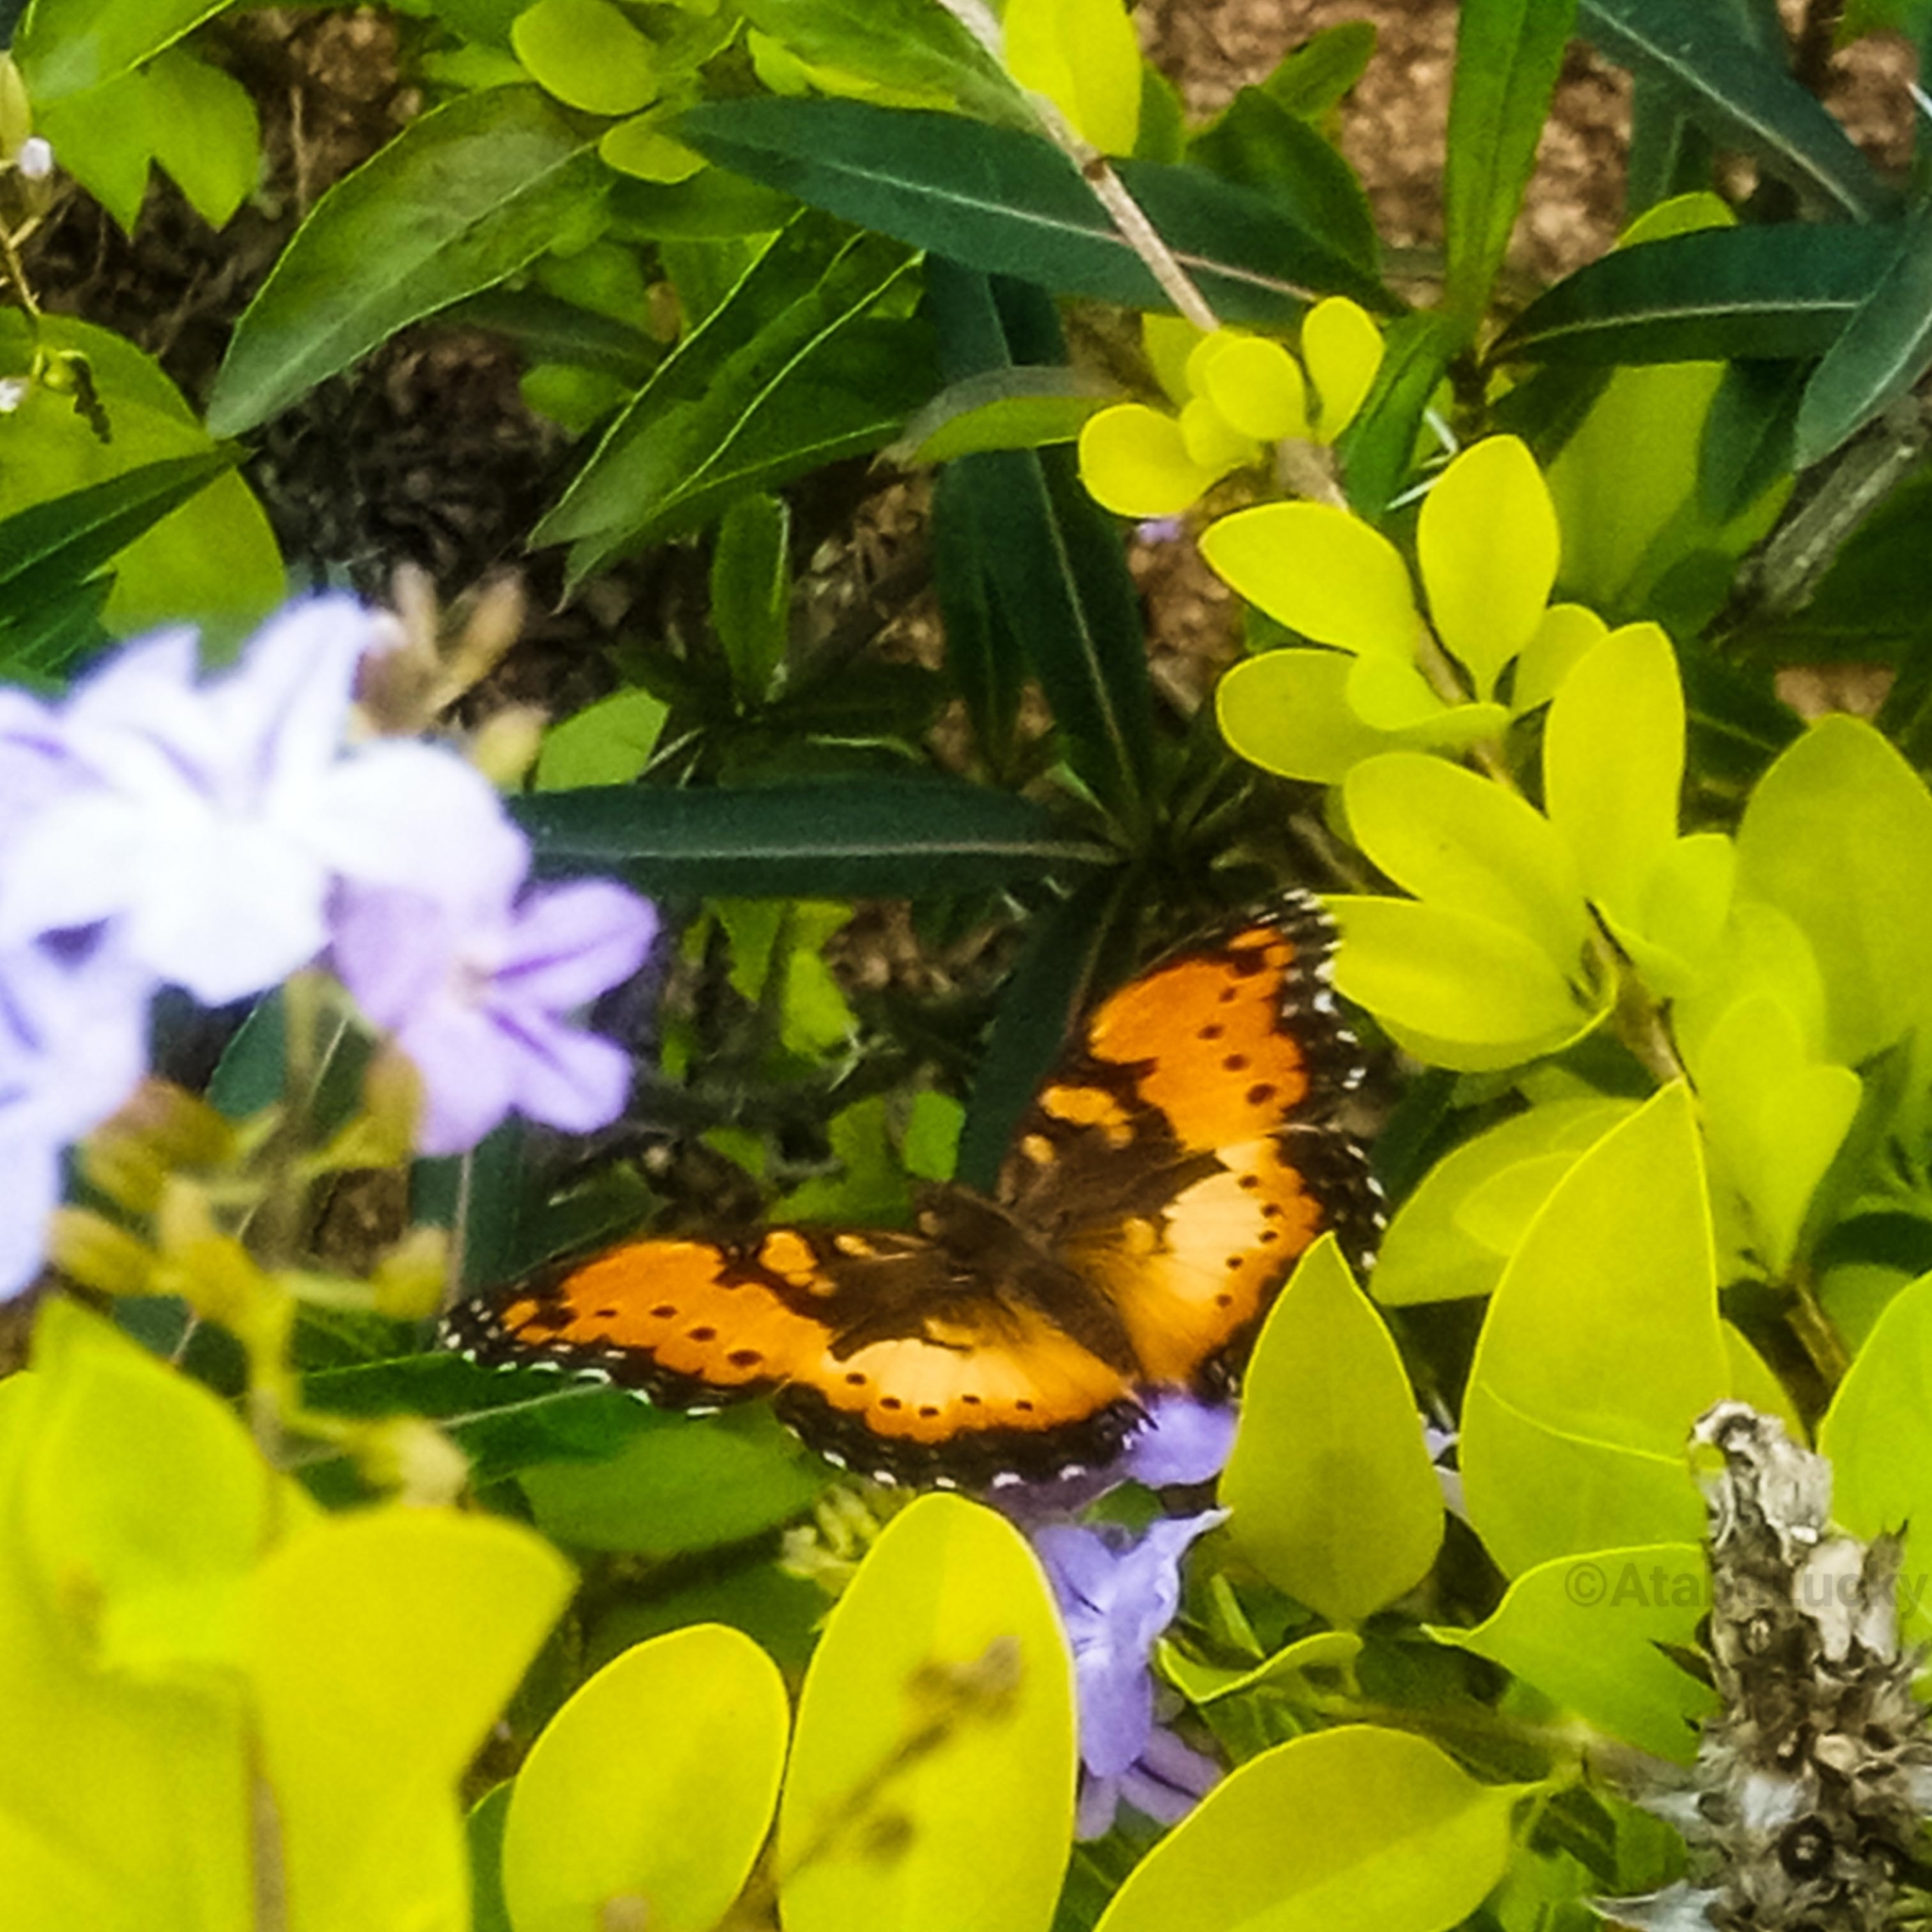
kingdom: Animalia
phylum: Arthropoda
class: Insecta
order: Lepidoptera
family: Nymphalidae
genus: Precis
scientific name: Precis octavia
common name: Gaudy commodore
